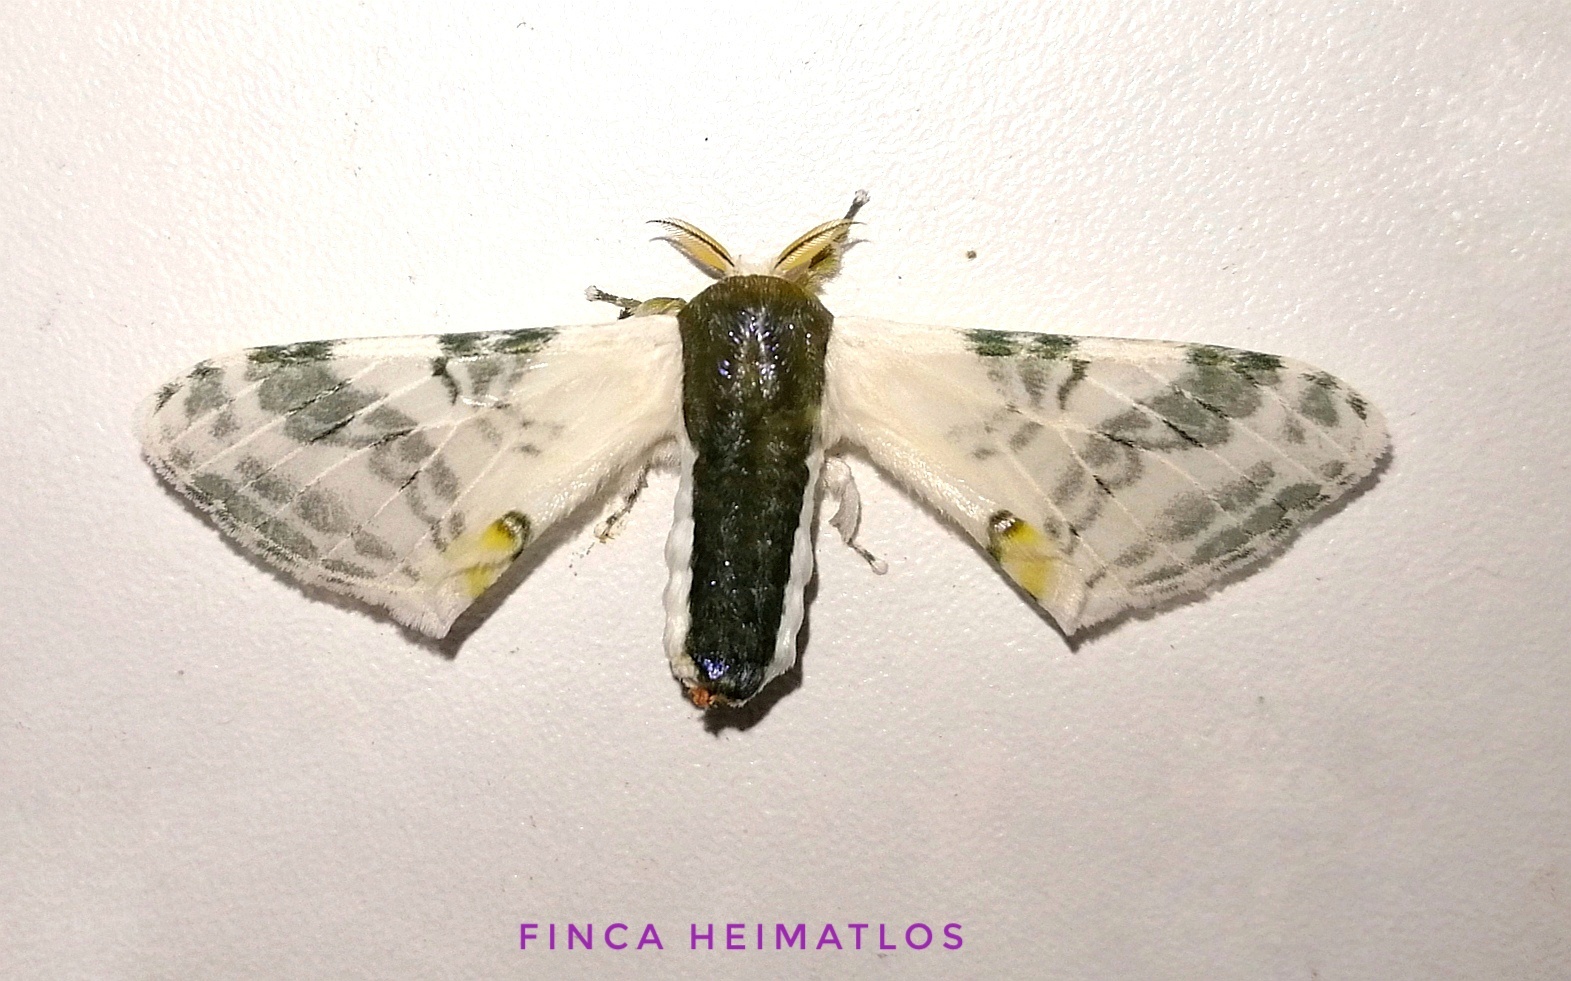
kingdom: Animalia
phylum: Arthropoda
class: Insecta
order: Lepidoptera
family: Bombycidae
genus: Colla
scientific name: Colla rhodope
